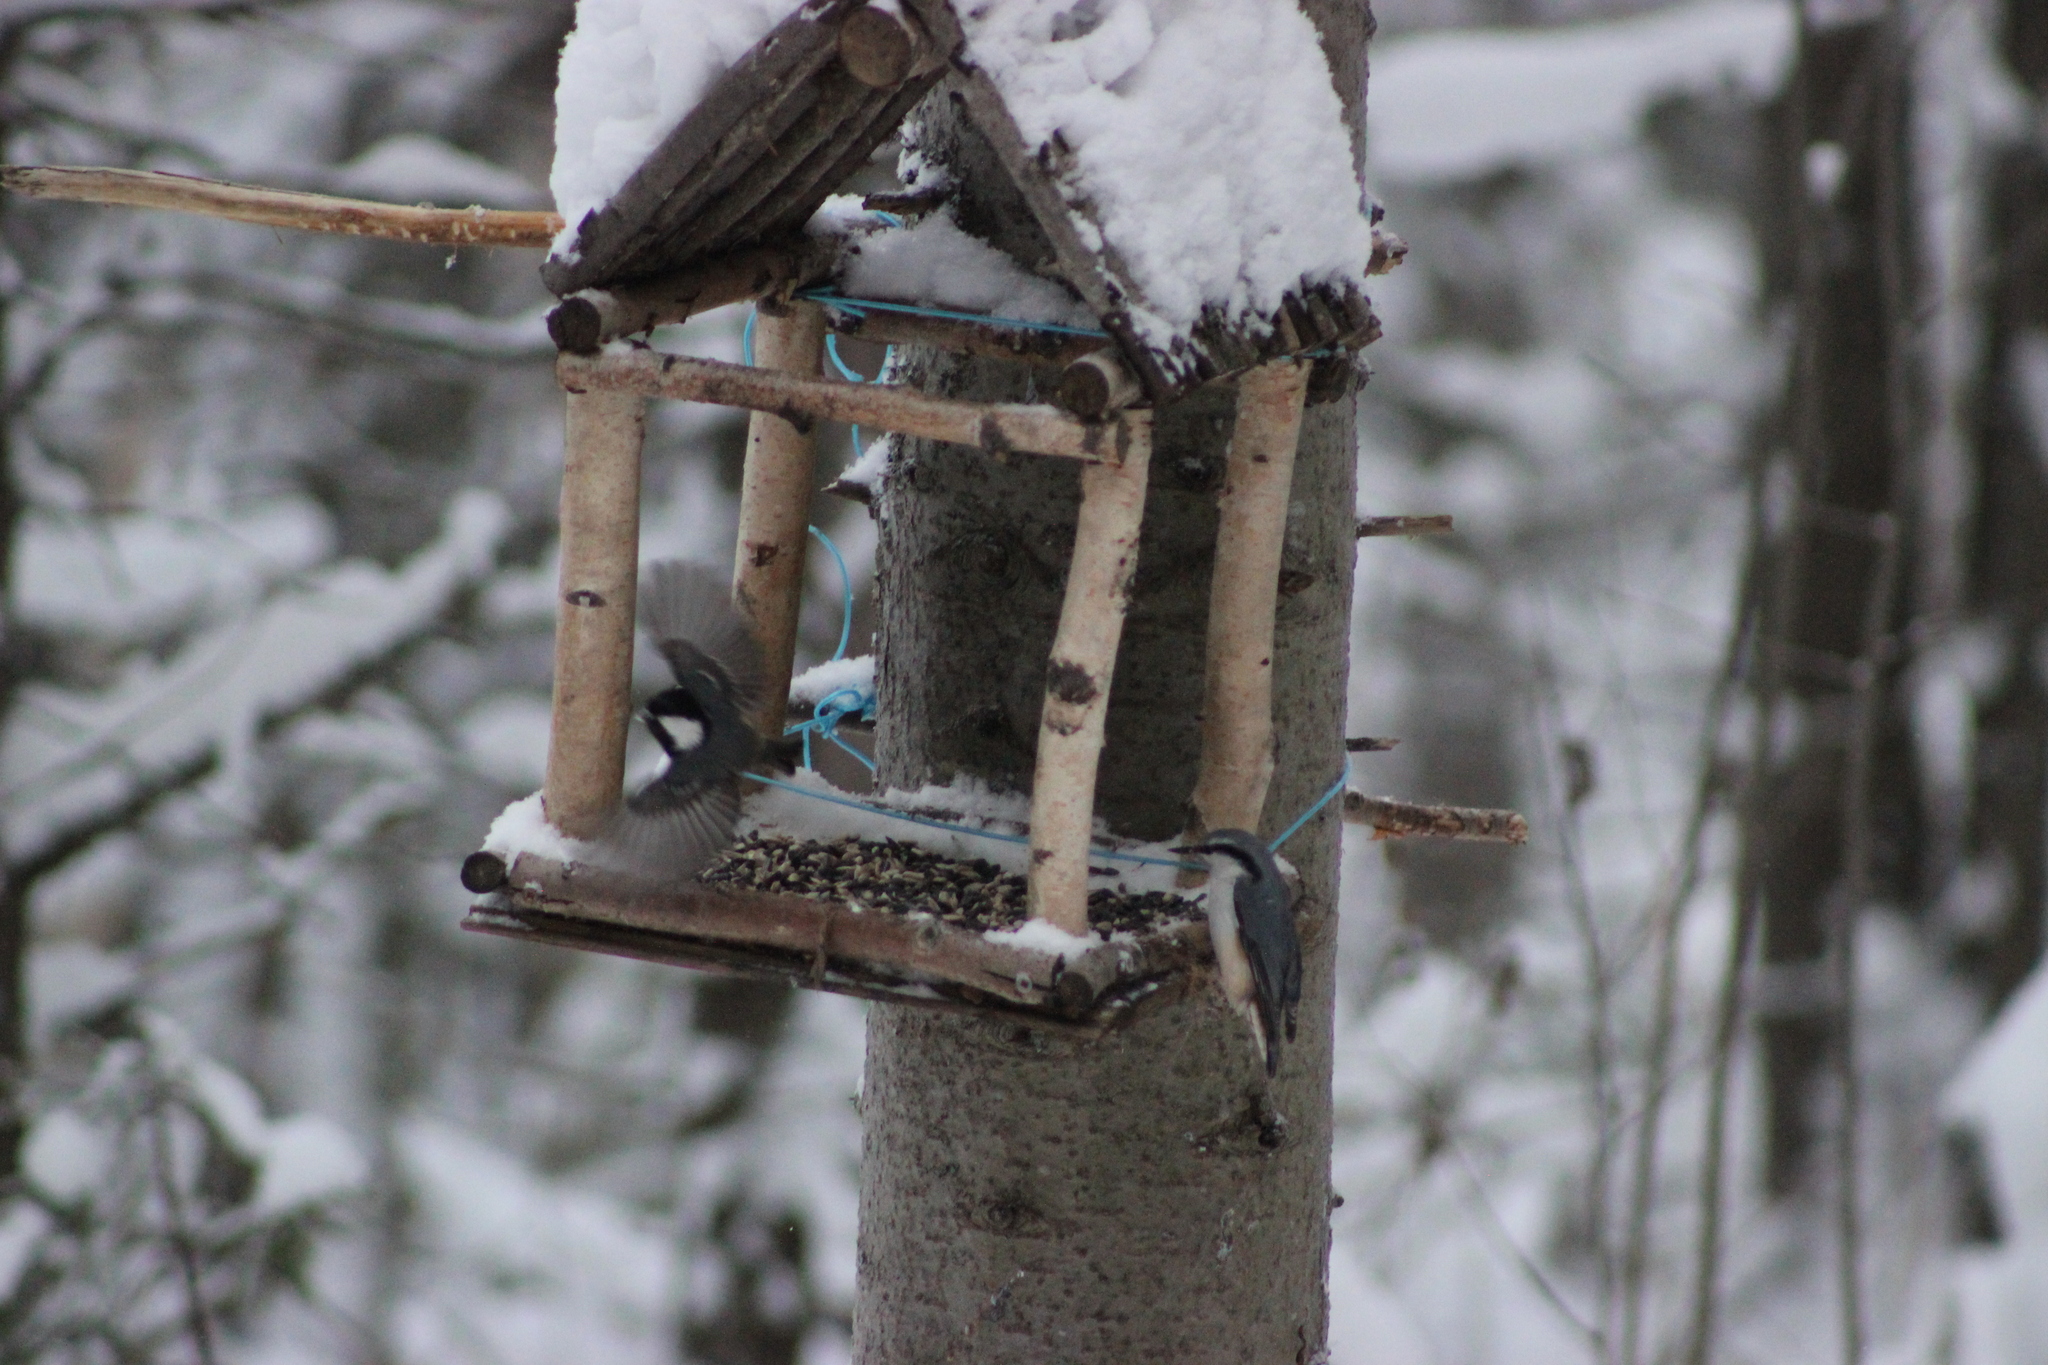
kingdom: Animalia
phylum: Chordata
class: Aves
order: Passeriformes
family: Sittidae
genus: Sitta
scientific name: Sitta europaea
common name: Eurasian nuthatch
